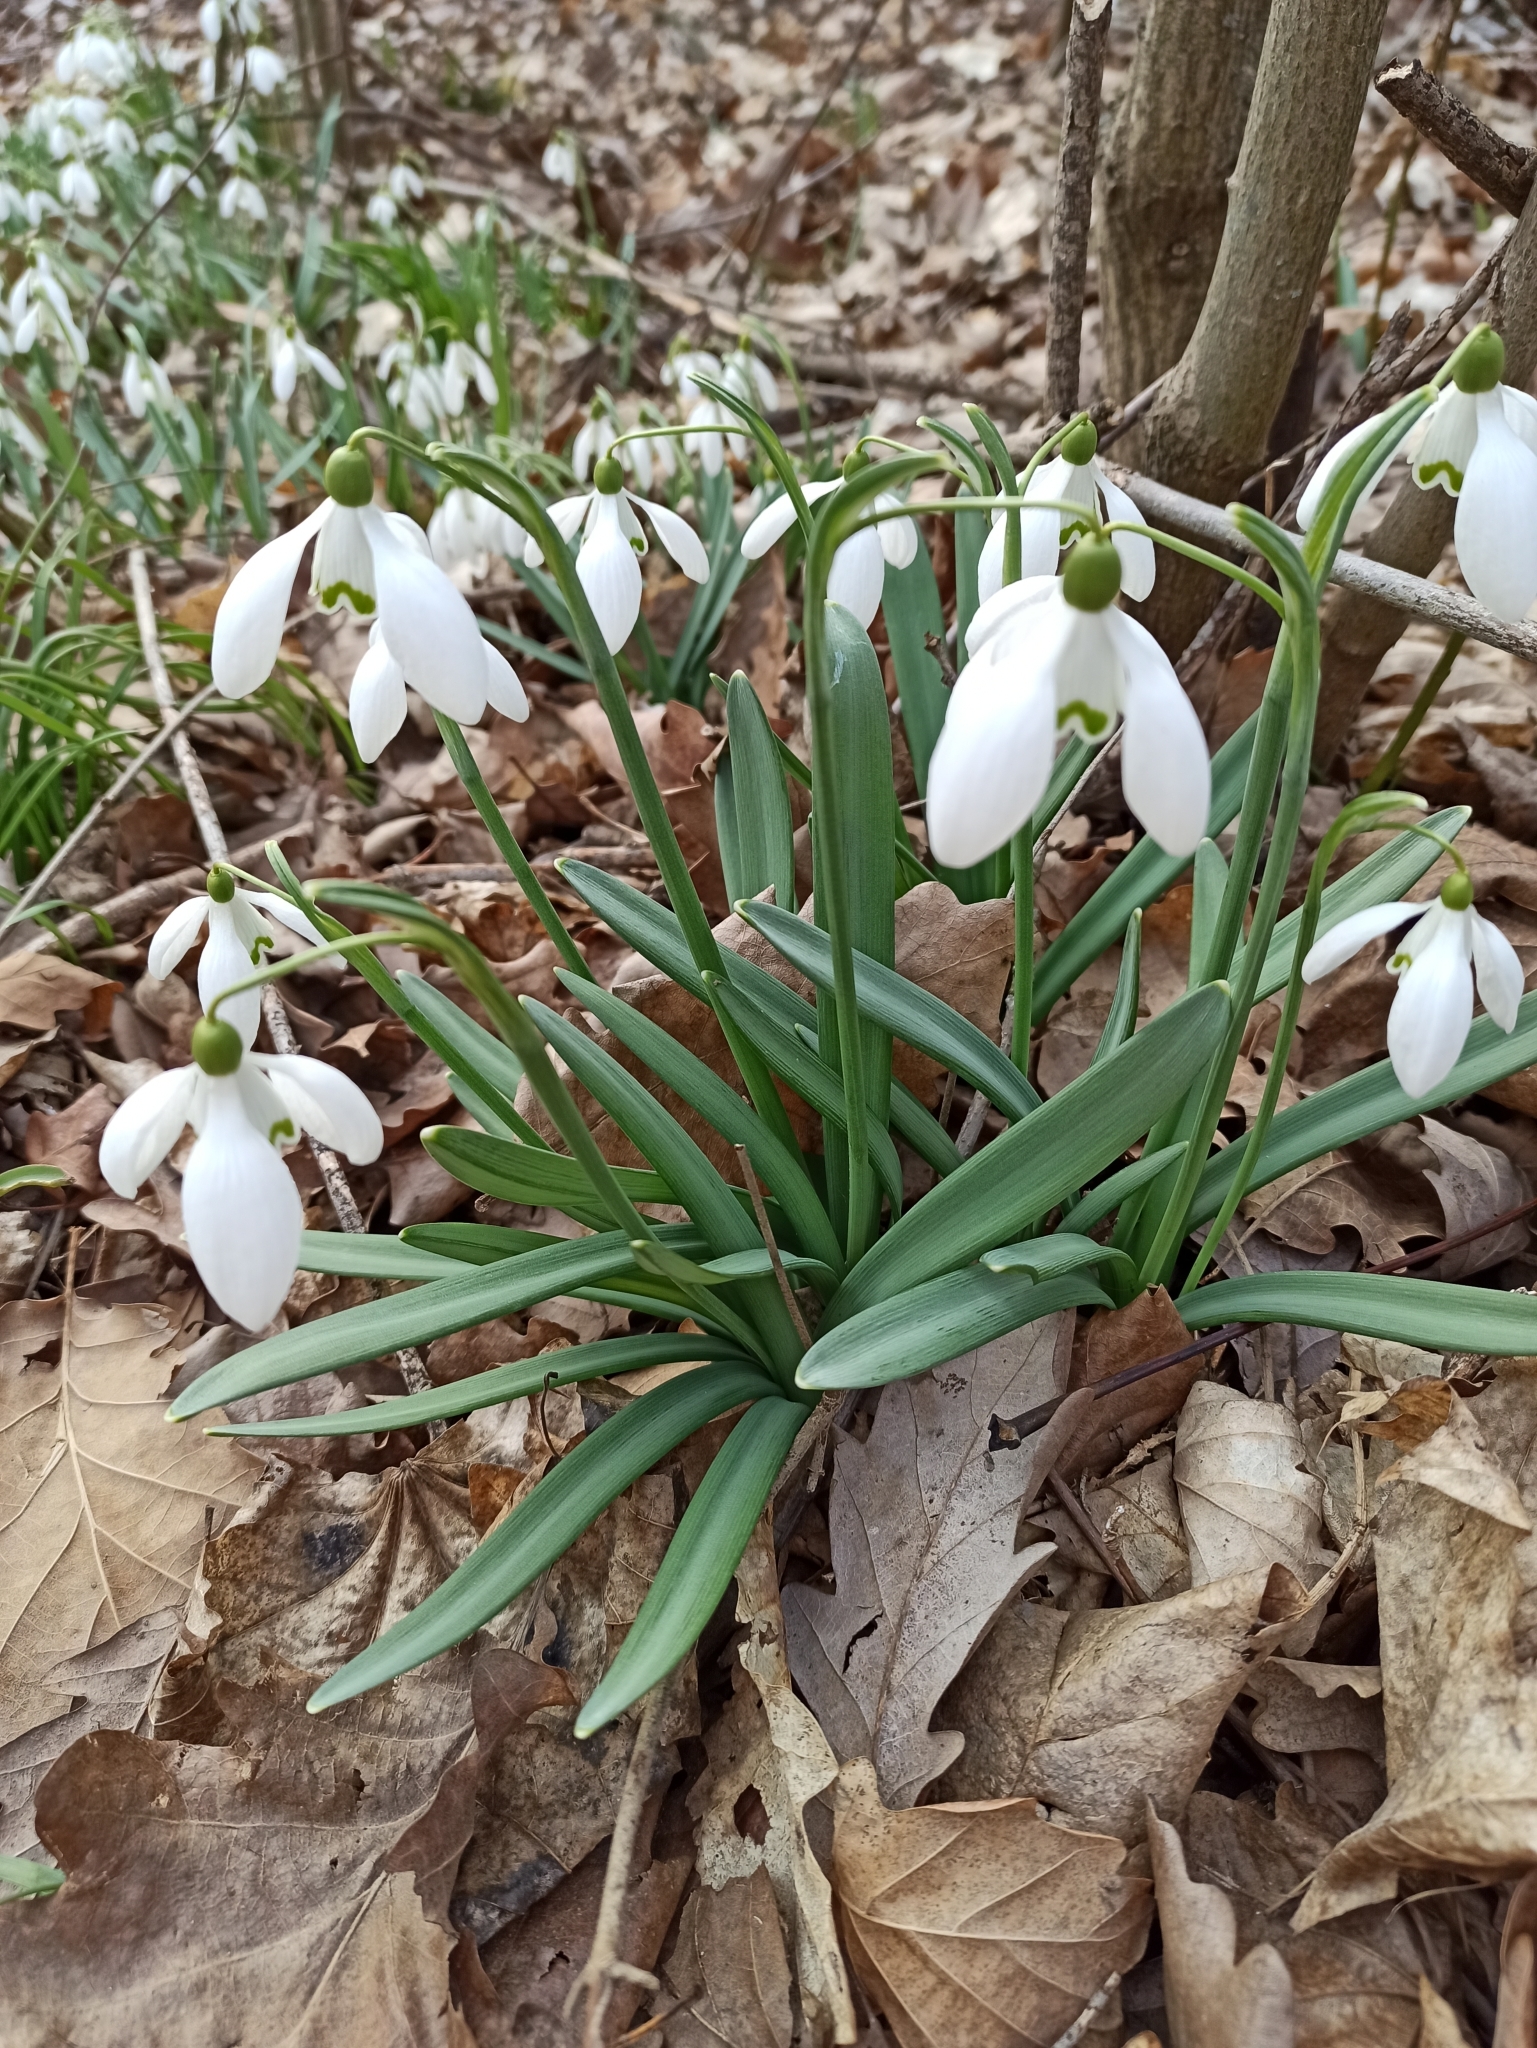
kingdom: Plantae
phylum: Tracheophyta
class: Liliopsida
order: Asparagales
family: Amaryllidaceae
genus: Galanthus
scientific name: Galanthus nivalis
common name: Snowdrop
